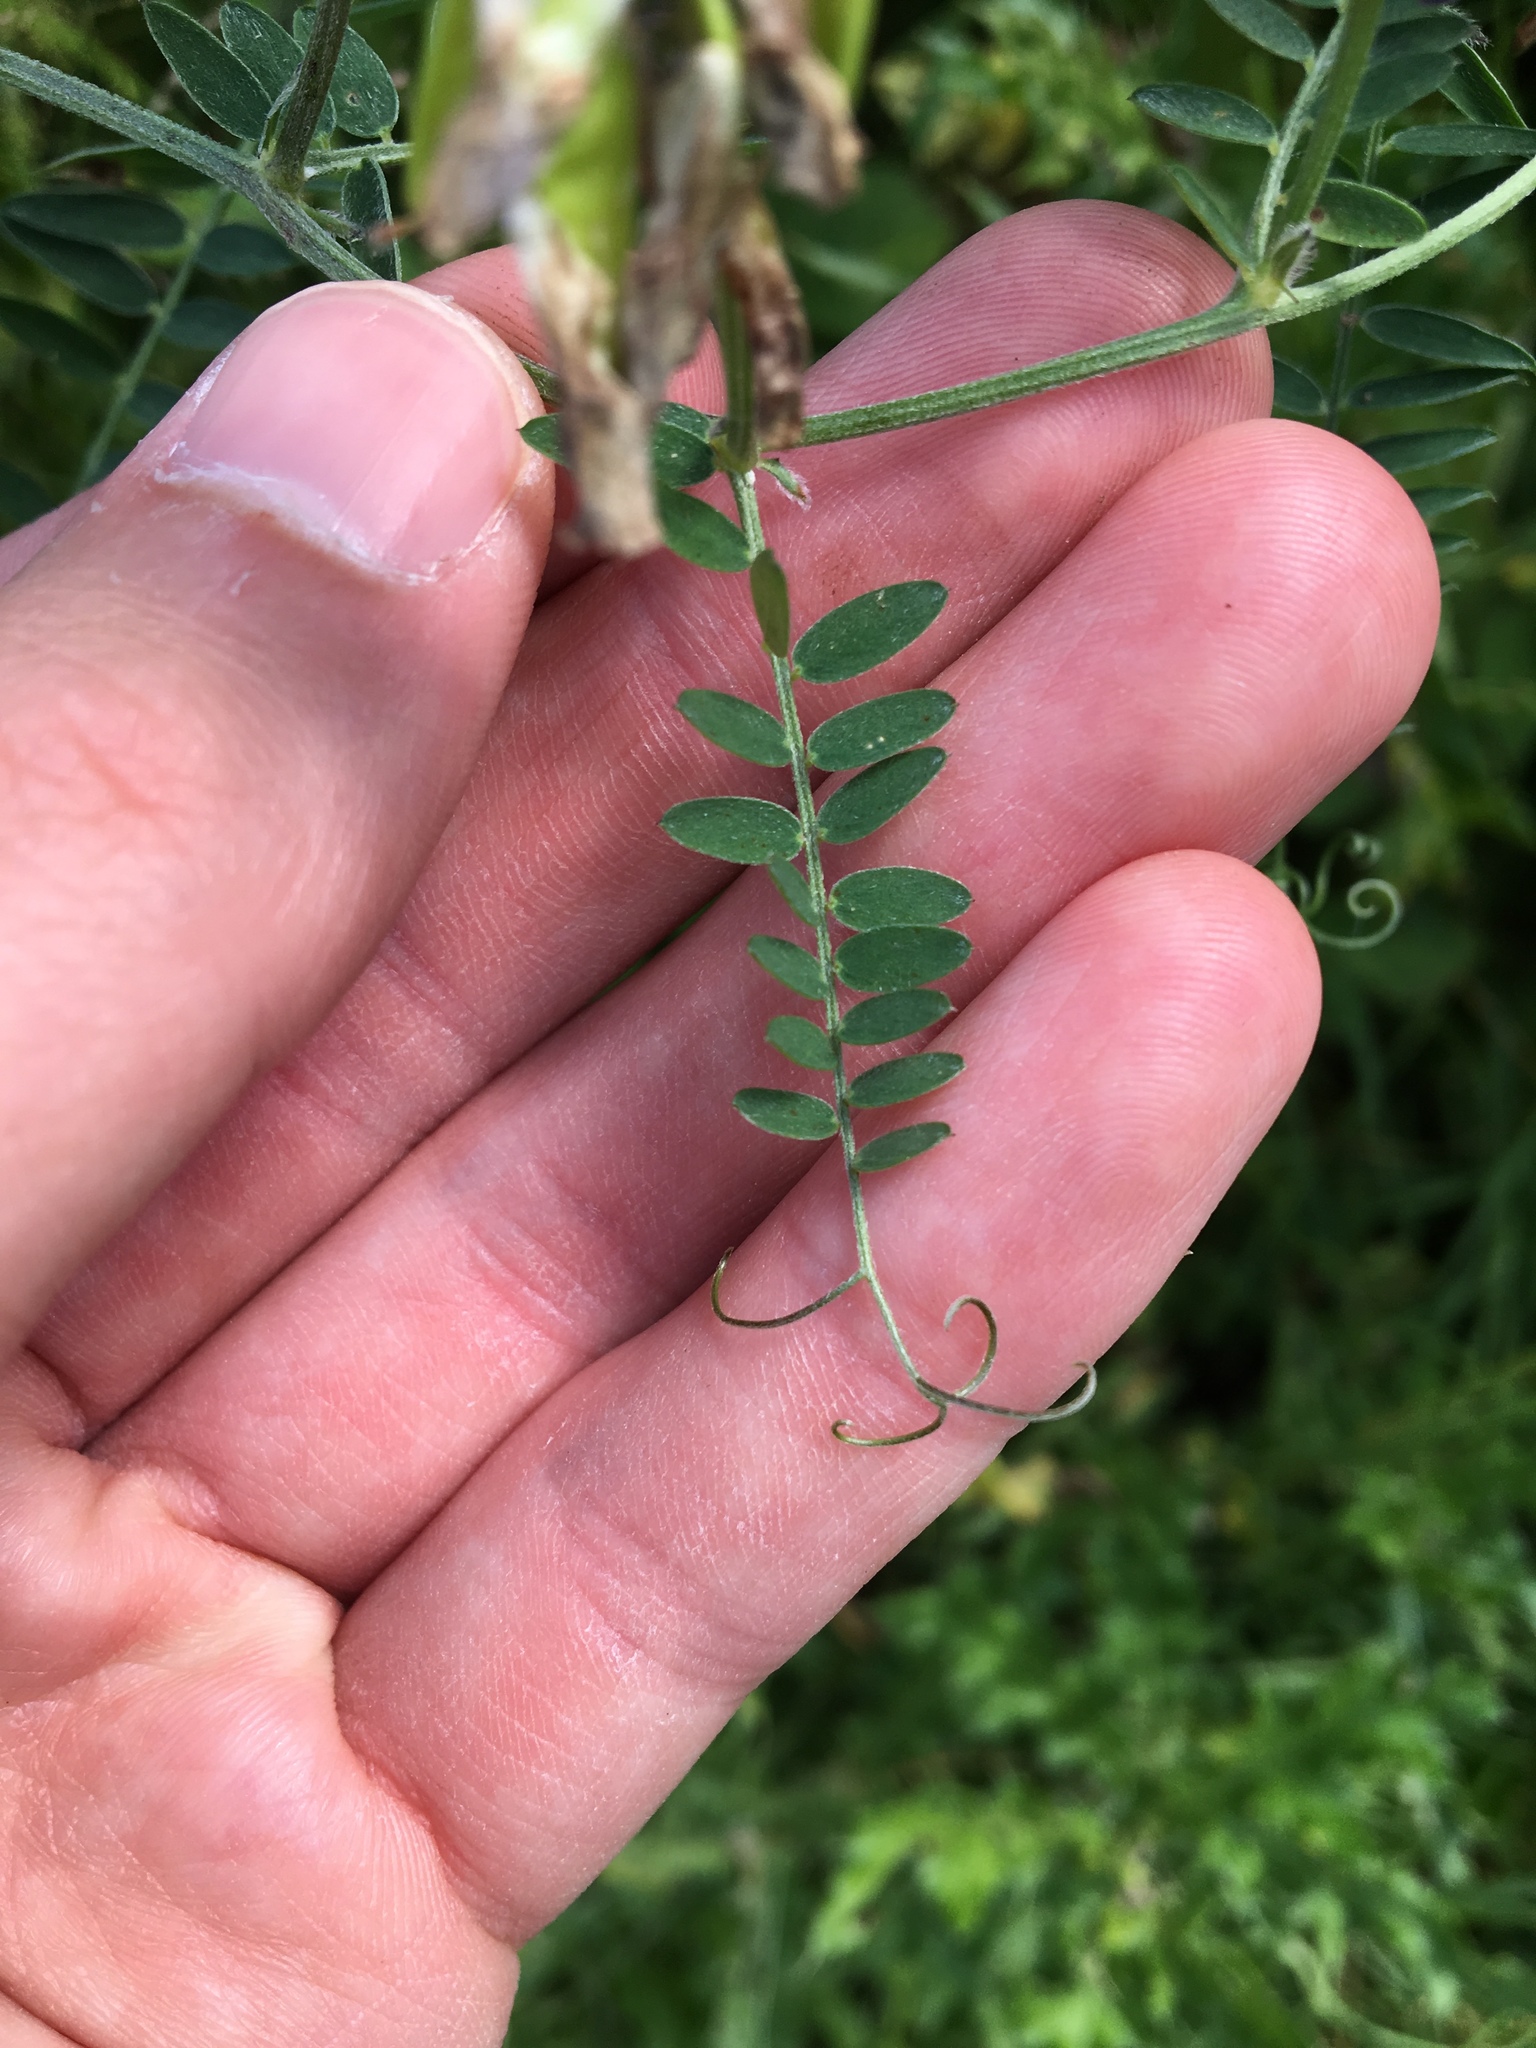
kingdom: Plantae
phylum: Tracheophyta
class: Magnoliopsida
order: Fabales
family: Fabaceae
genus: Vicia
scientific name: Vicia cracca
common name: Bird vetch
